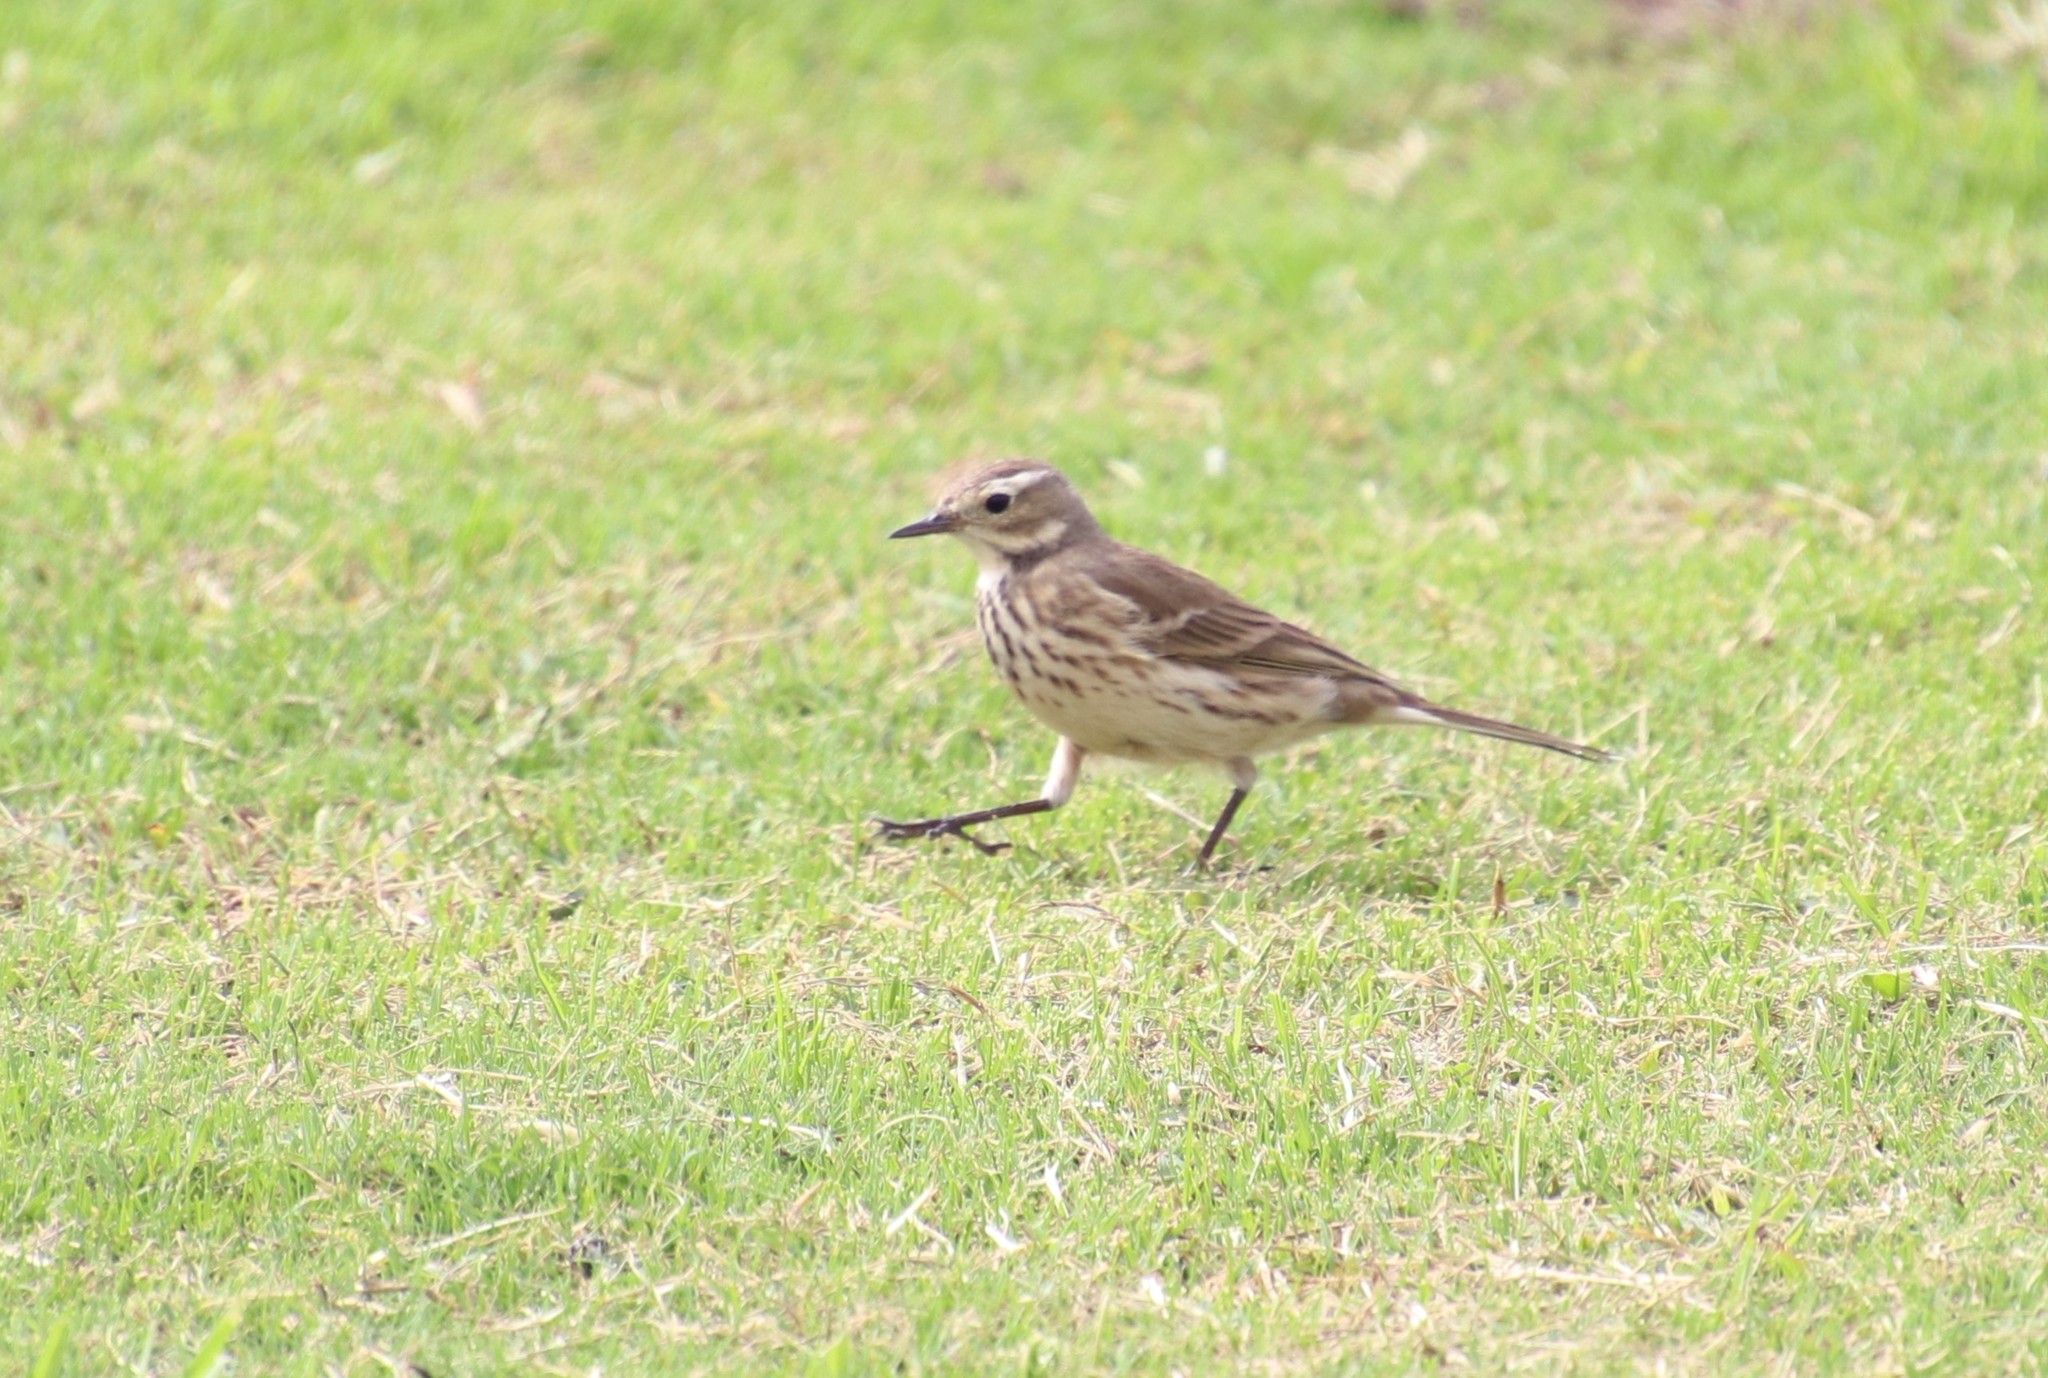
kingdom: Animalia
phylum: Chordata
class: Aves
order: Charadriiformes
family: Scolopacidae
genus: Calidris
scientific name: Calidris subruficollis
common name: Buff-breasted sandpiper
